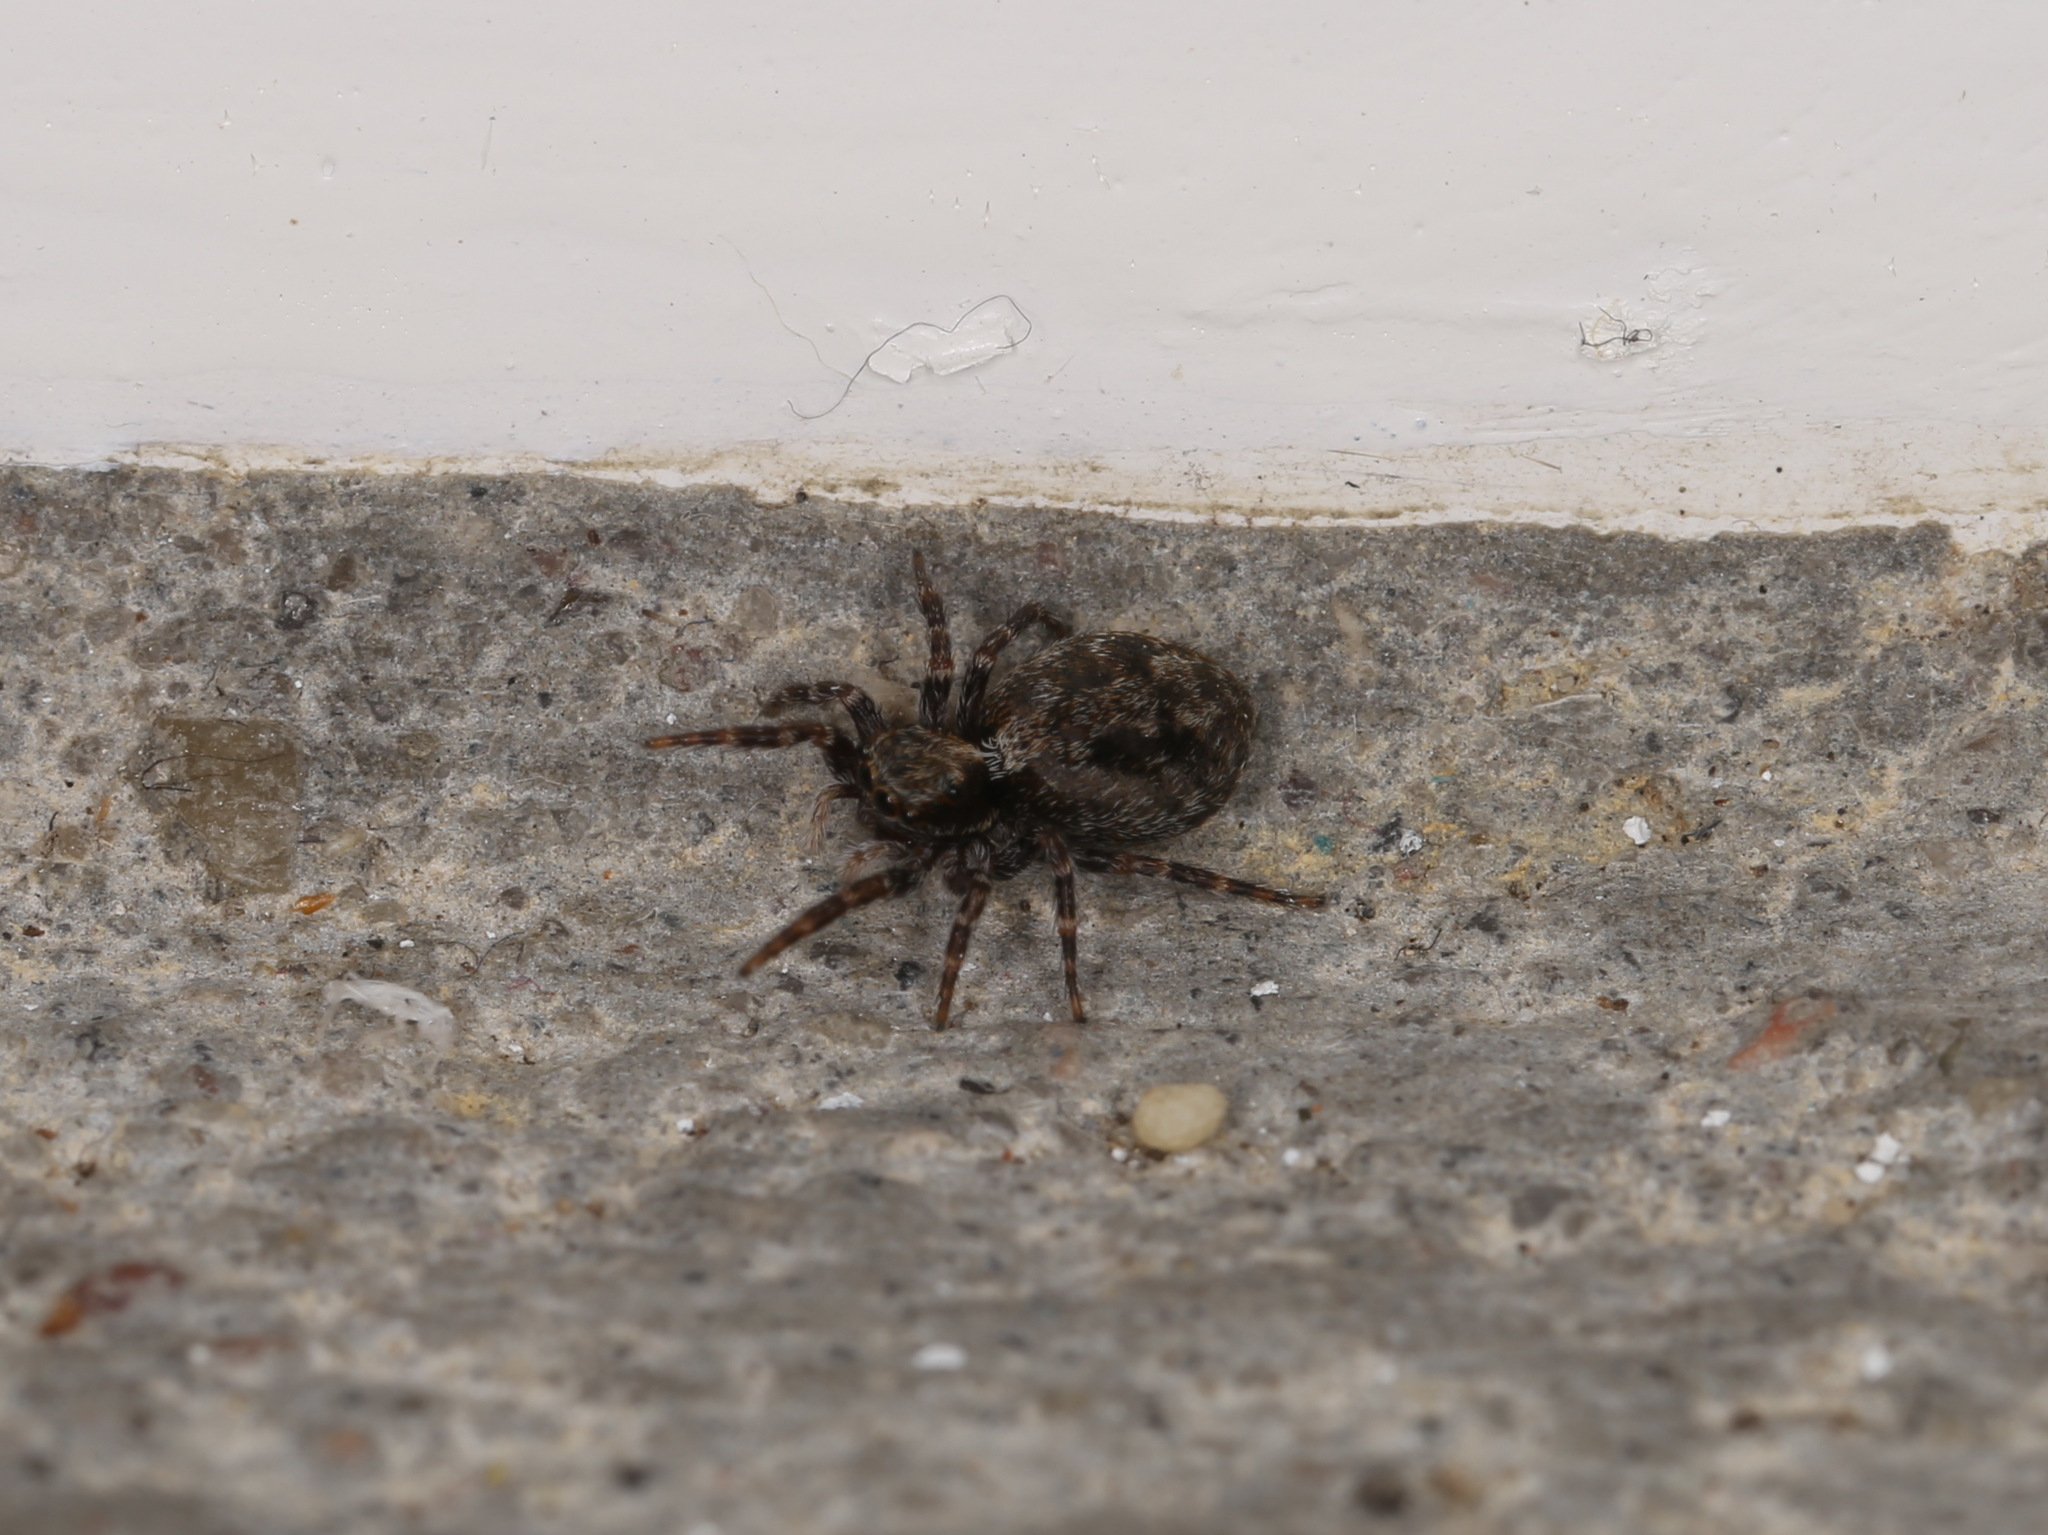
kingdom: Animalia
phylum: Arthropoda
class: Arachnida
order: Araneae
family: Salticidae
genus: Pseudeuophrys
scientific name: Pseudeuophrys lanigera
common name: Jumping spider
